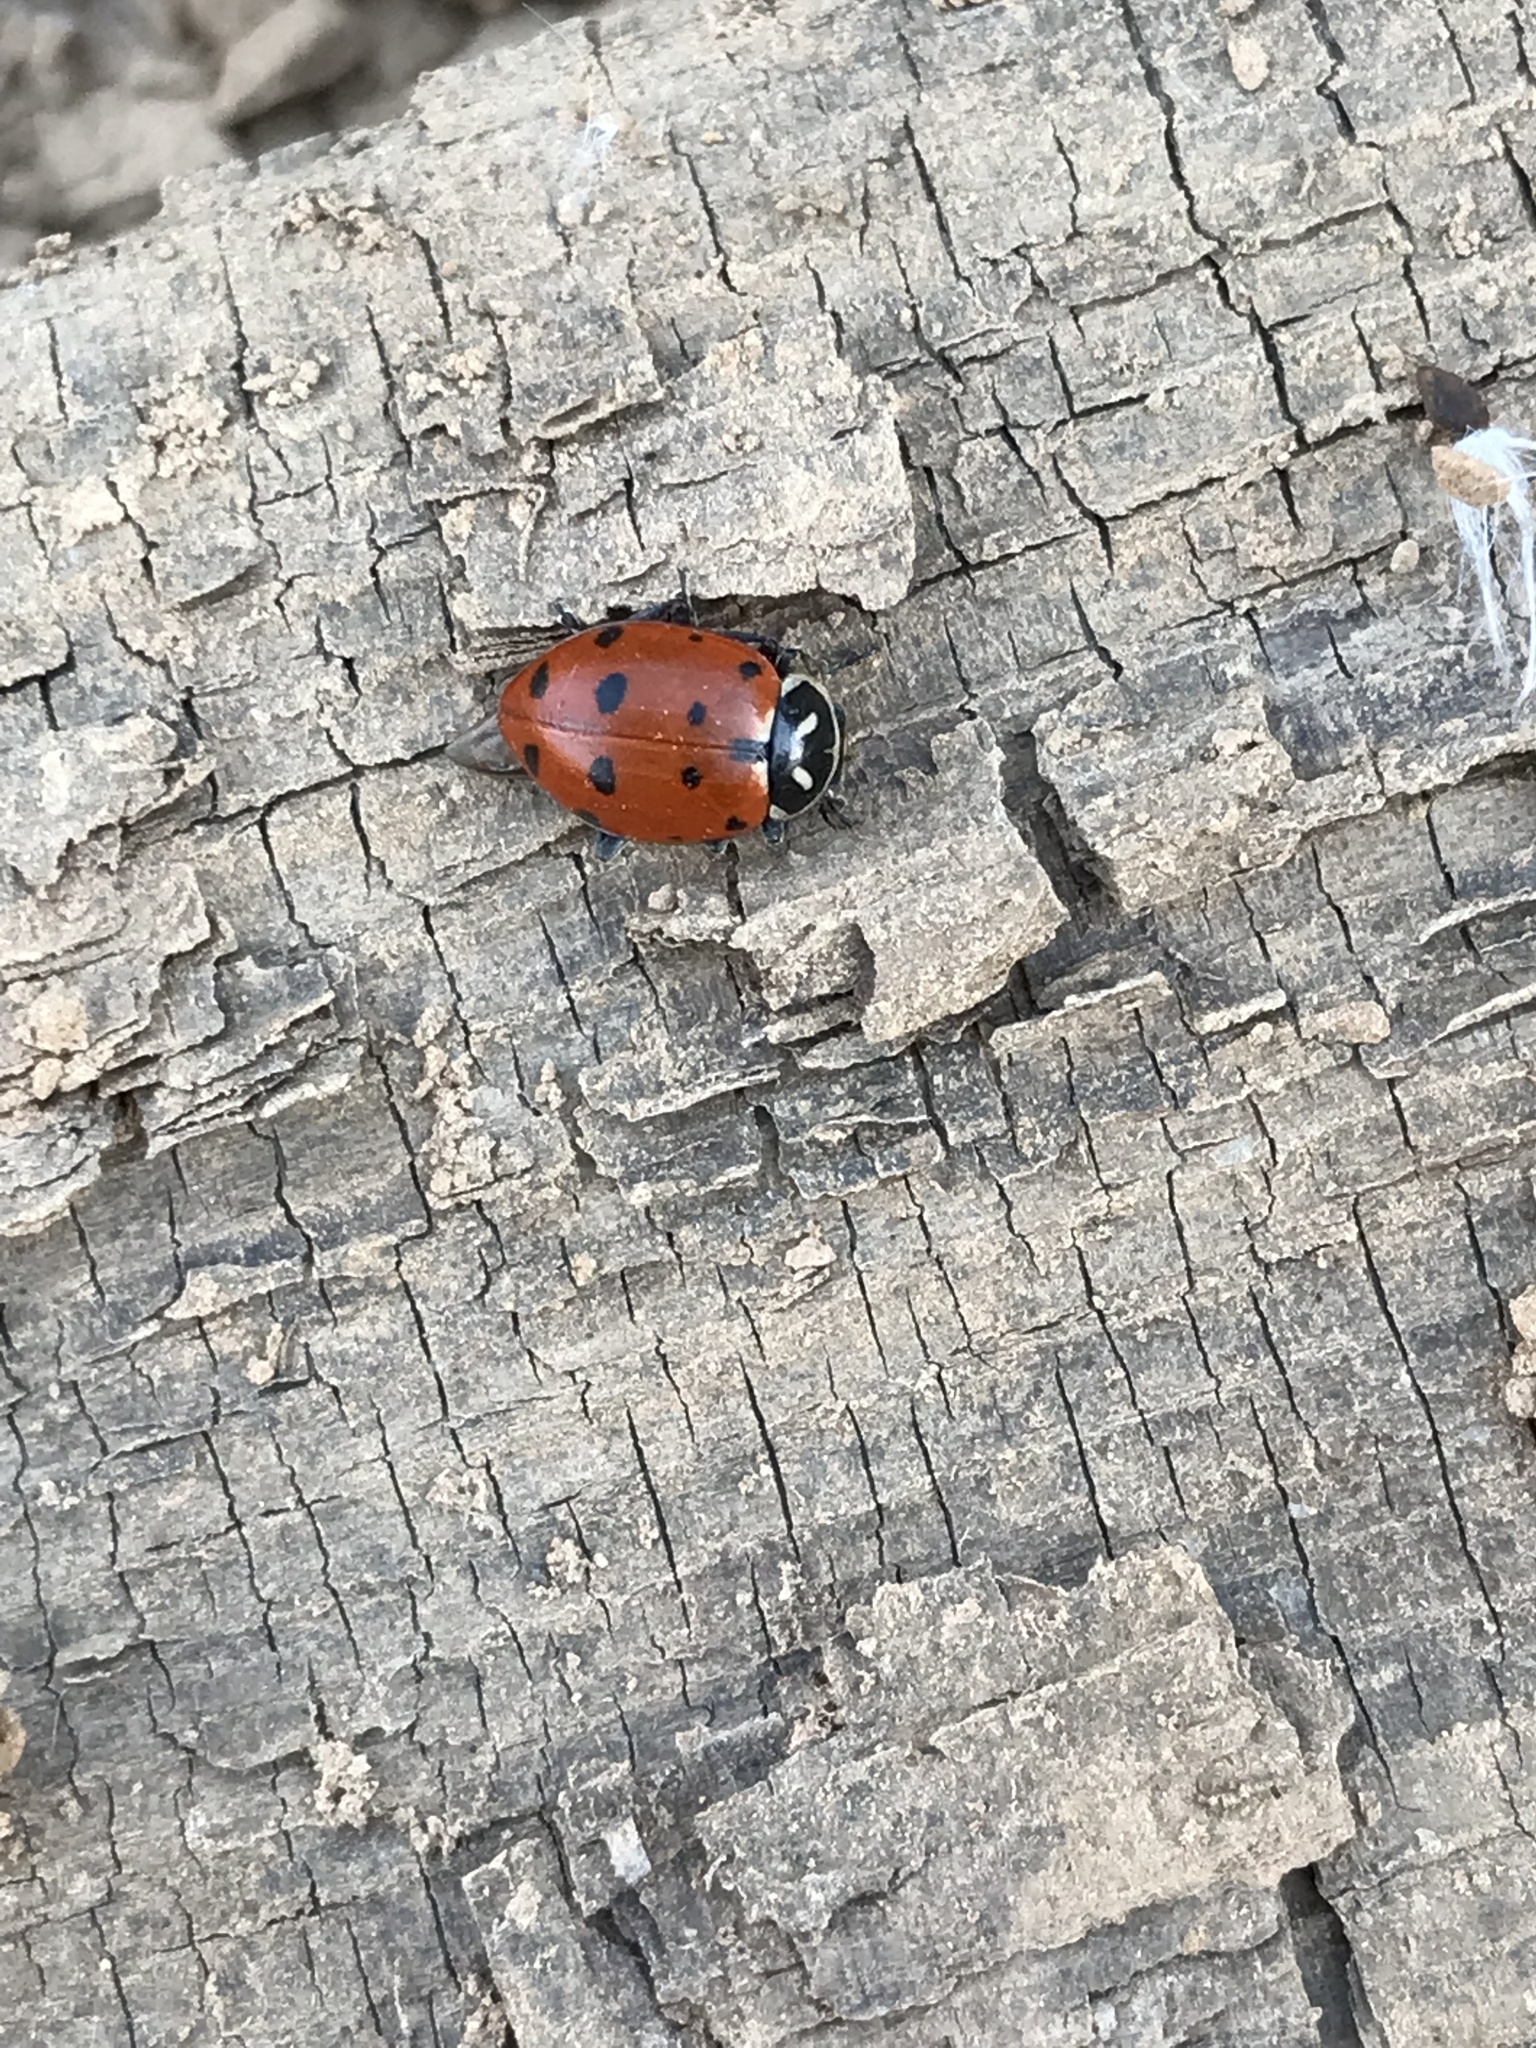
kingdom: Animalia
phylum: Arthropoda
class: Insecta
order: Coleoptera
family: Coccinellidae
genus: Hippodamia
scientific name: Hippodamia convergens
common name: Convergent lady beetle
